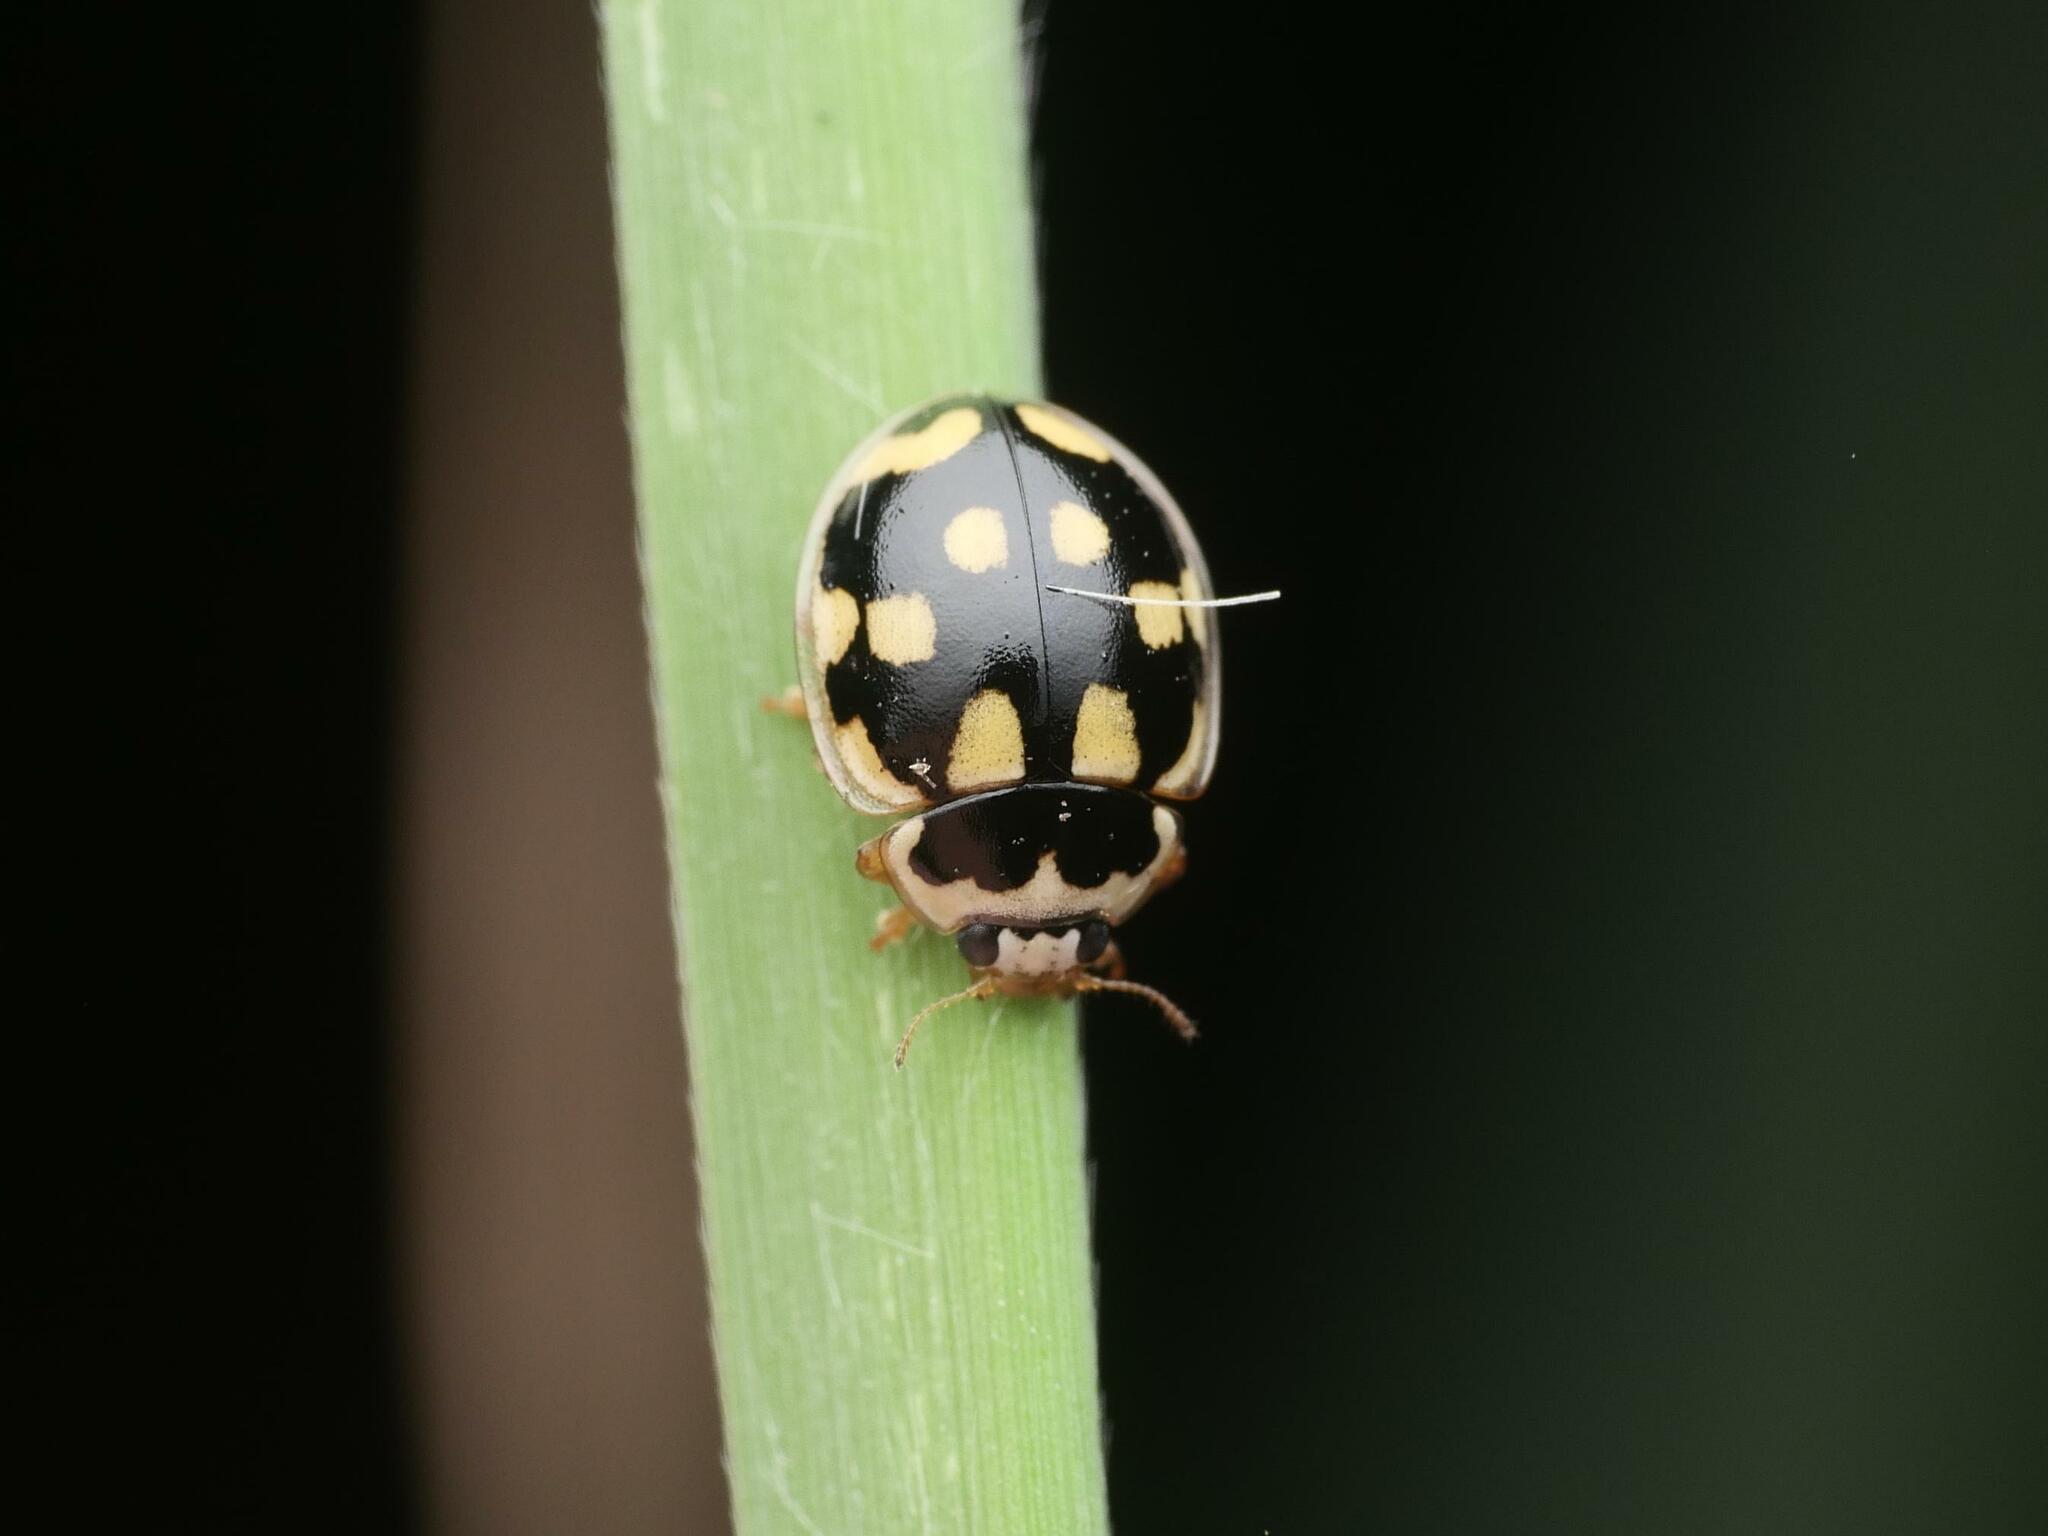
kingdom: Animalia
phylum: Arthropoda
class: Insecta
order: Coleoptera
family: Coccinellidae
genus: Propylaea
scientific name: Propylaea quatuordecimpunctata
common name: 14-spotted ladybird beetle
